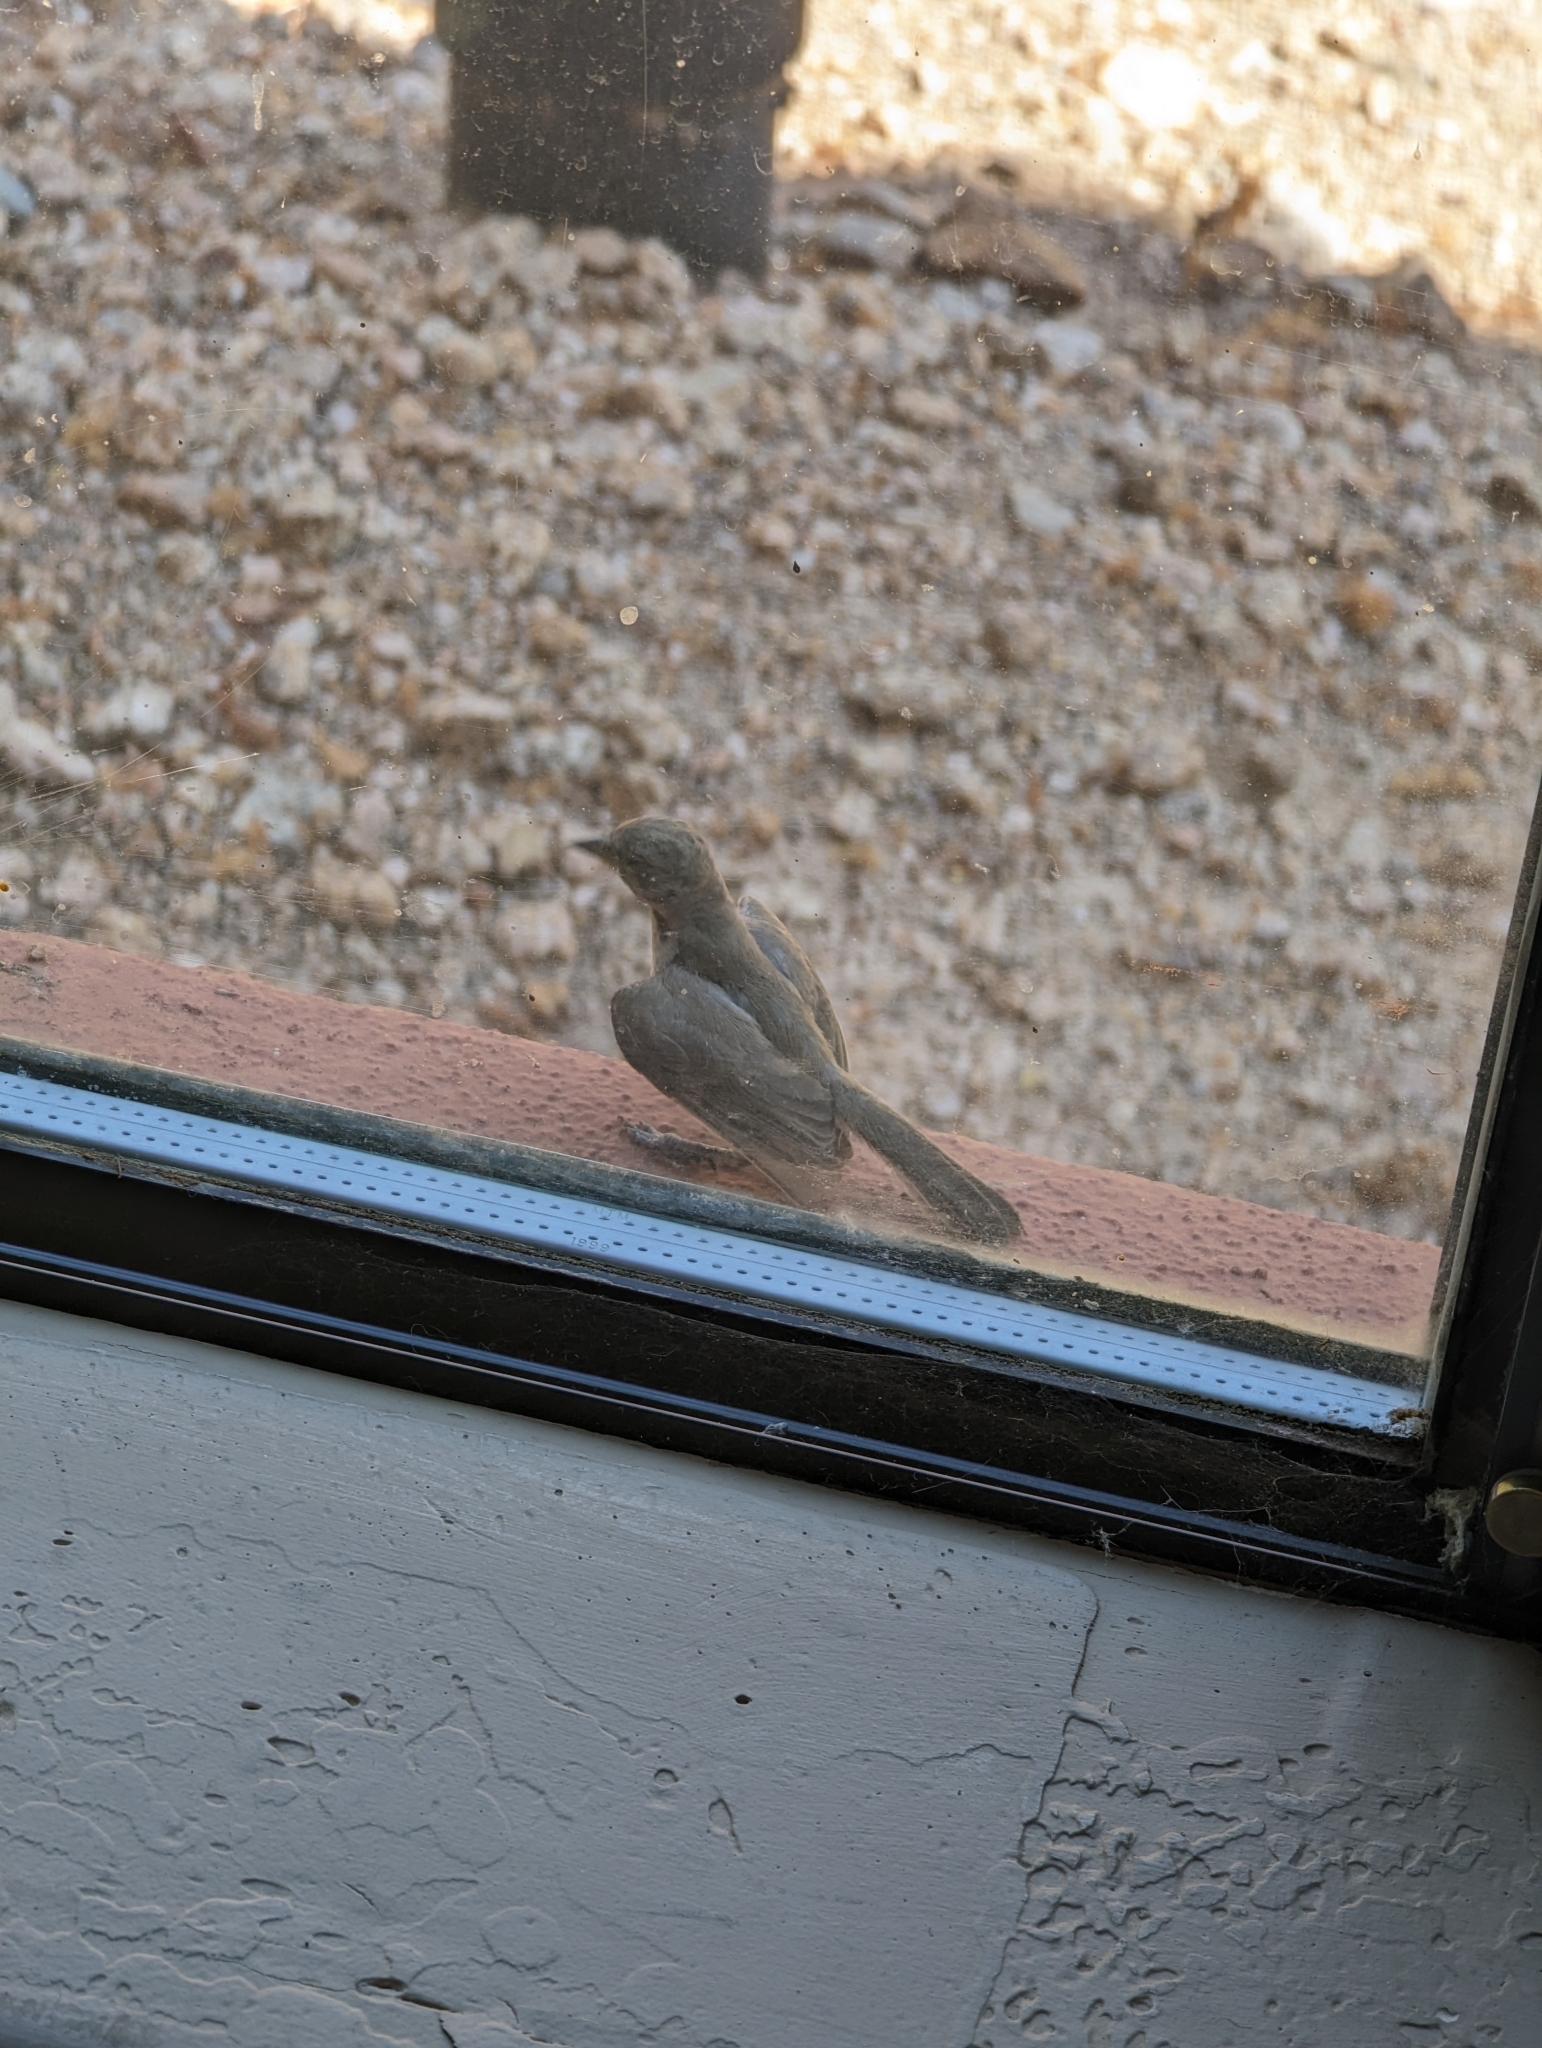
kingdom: Animalia
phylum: Chordata
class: Aves
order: Passeriformes
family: Remizidae
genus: Auriparus
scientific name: Auriparus flaviceps
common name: Verdin
